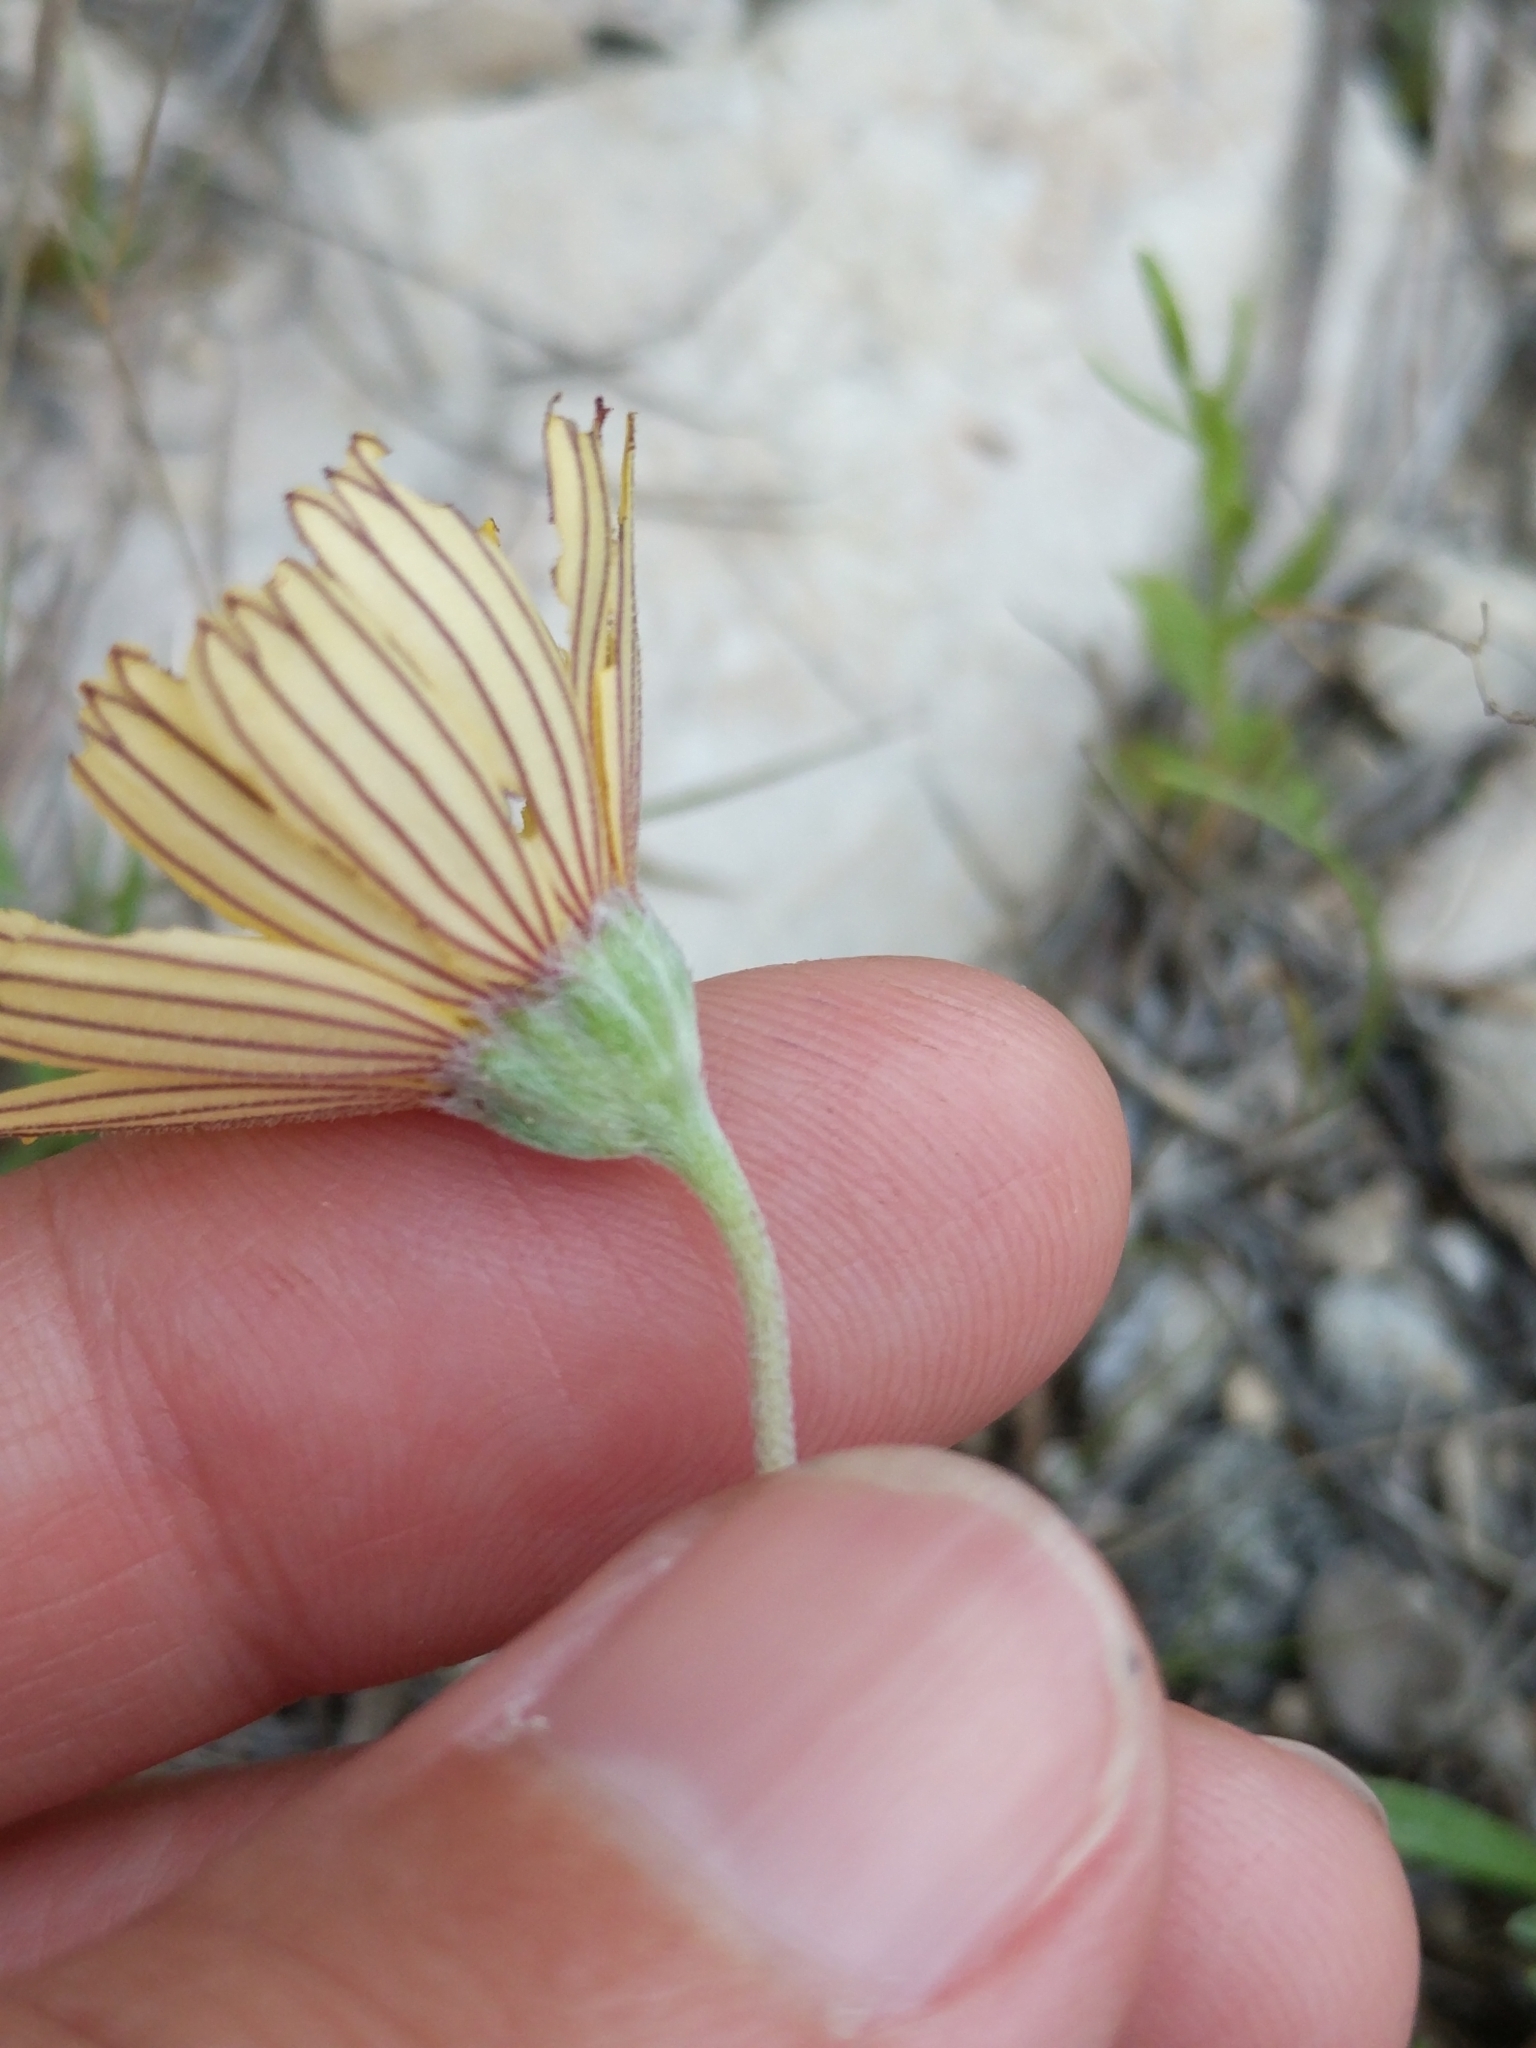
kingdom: Plantae
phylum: Tracheophyta
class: Magnoliopsida
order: Asterales
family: Asteraceae
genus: Tetraneuris
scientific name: Tetraneuris scaposa
